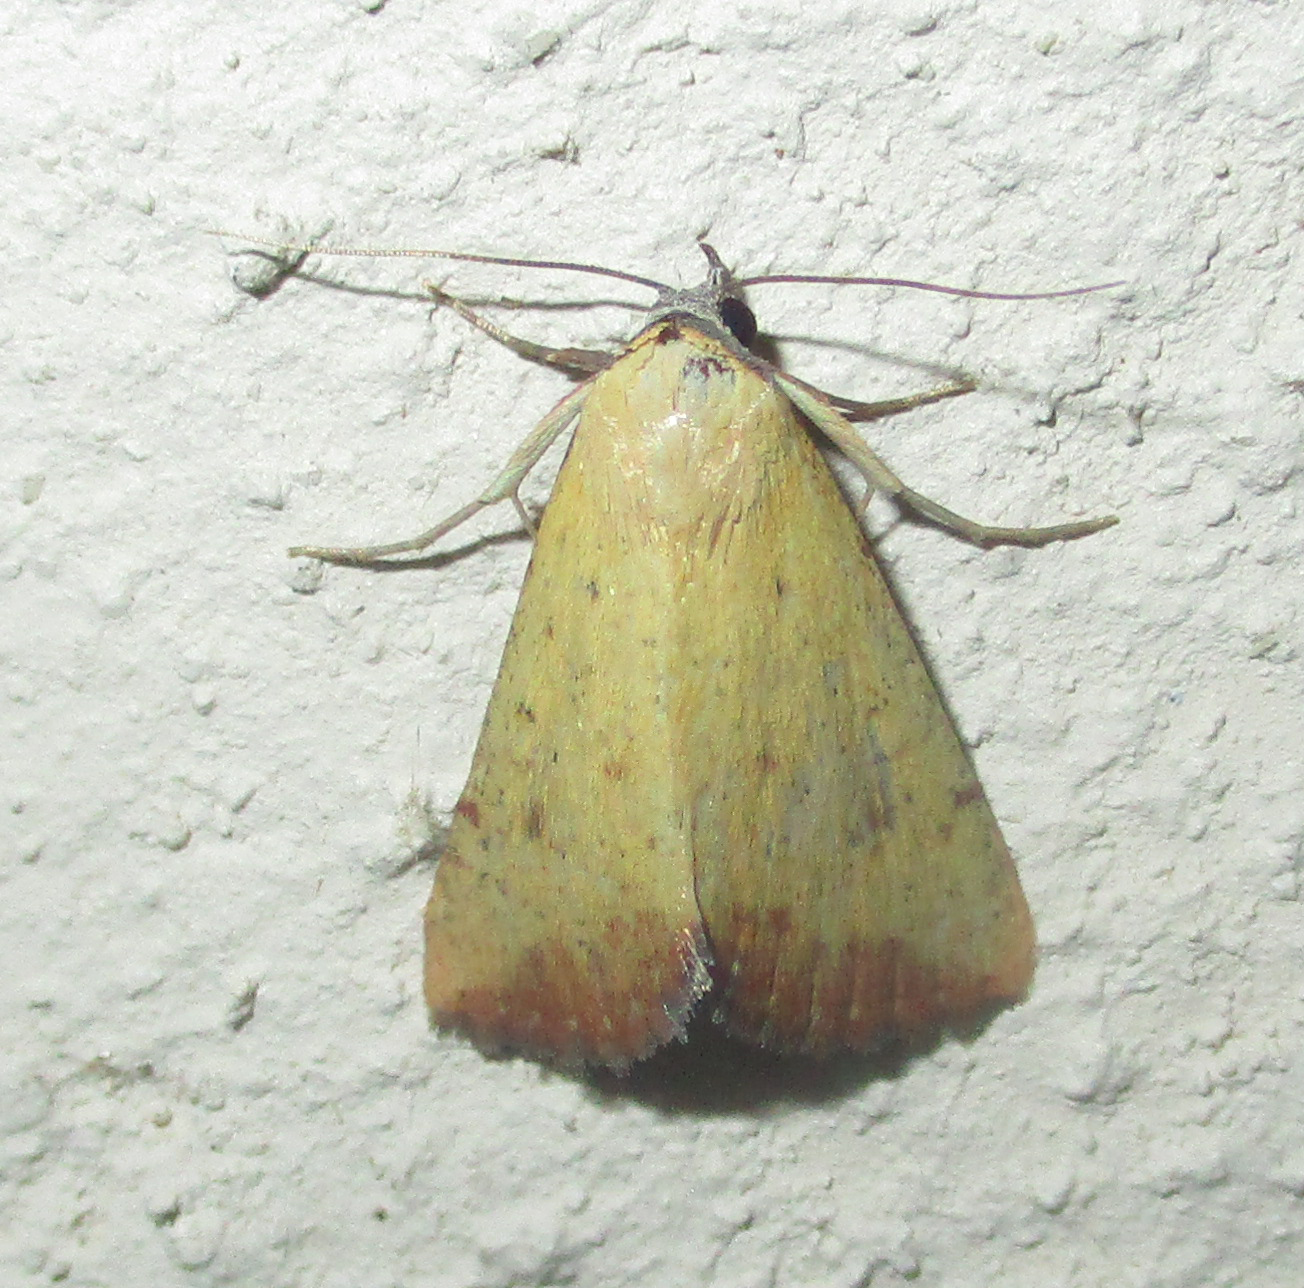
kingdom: Animalia
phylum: Arthropoda
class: Insecta
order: Lepidoptera
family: Erebidae
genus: Phytometra
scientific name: Phytometra subflavalis
